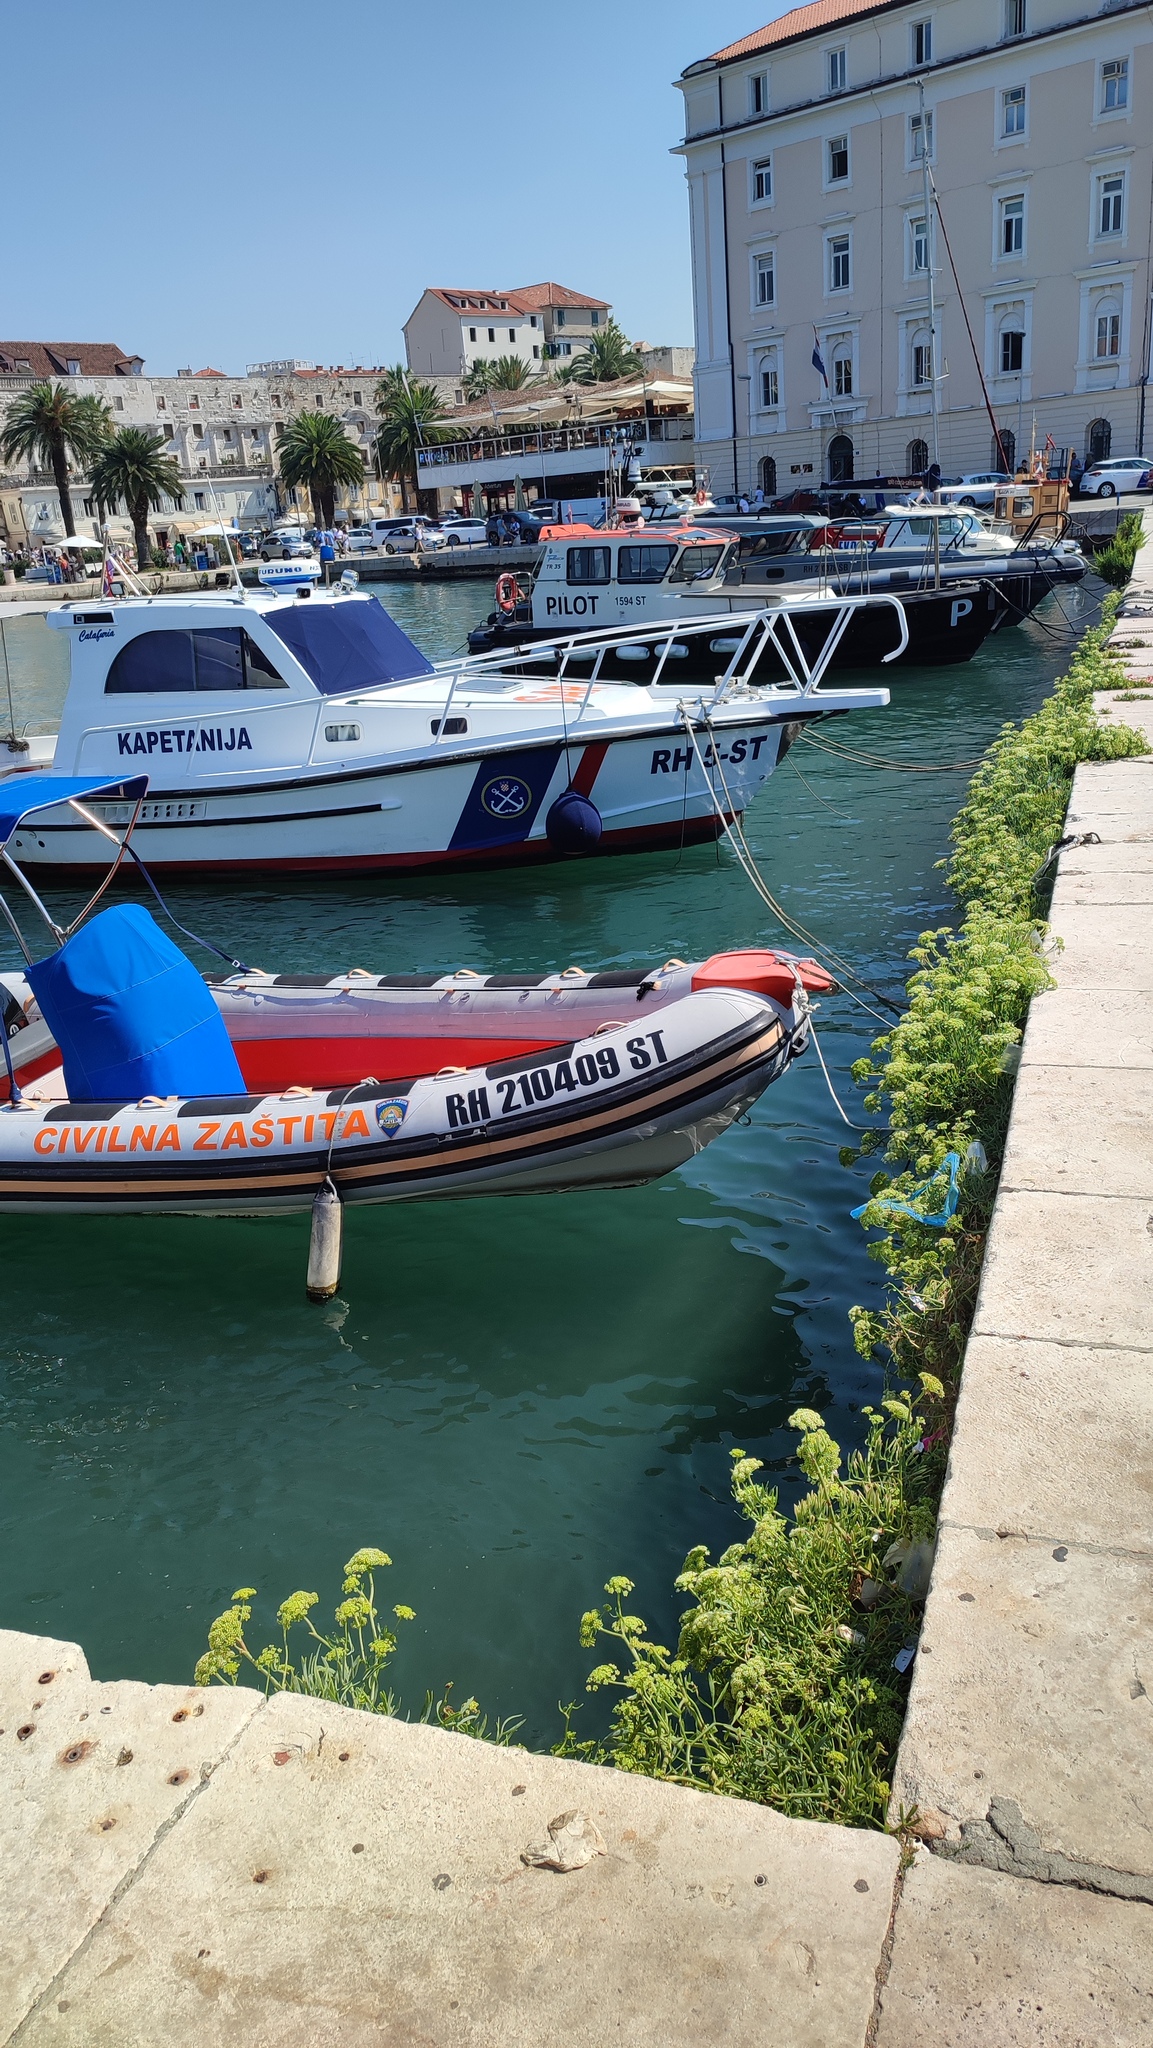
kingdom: Plantae
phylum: Tracheophyta
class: Magnoliopsida
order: Apiales
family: Apiaceae
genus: Crithmum
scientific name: Crithmum maritimum
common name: Rock samphire
